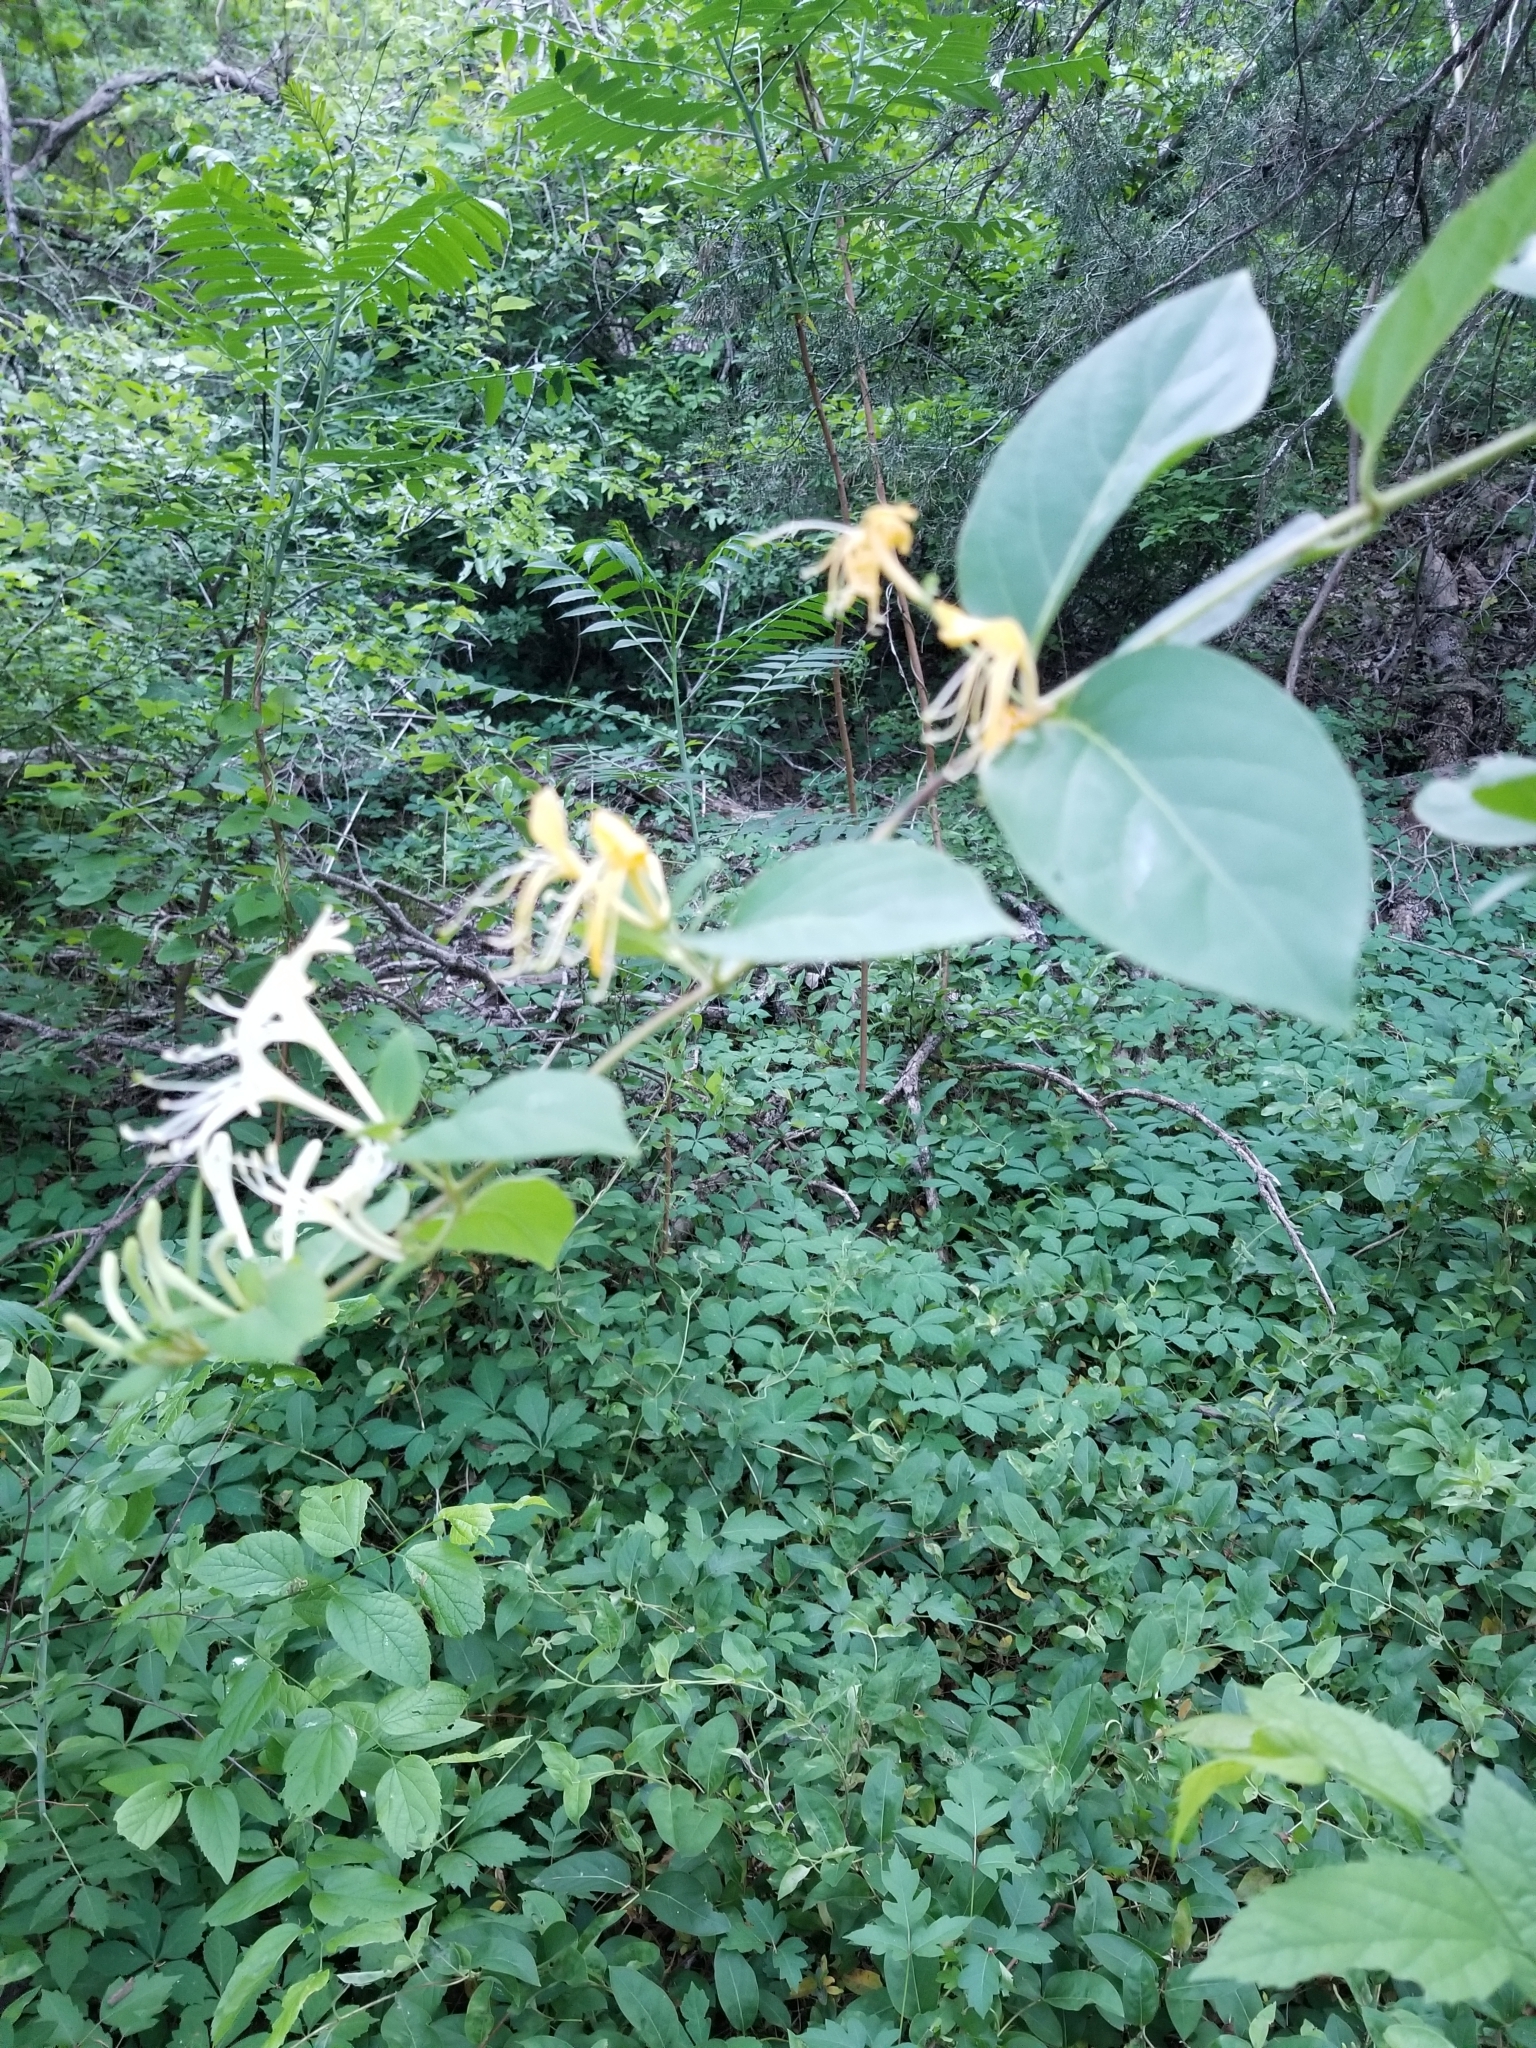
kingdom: Plantae
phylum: Tracheophyta
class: Magnoliopsida
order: Dipsacales
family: Caprifoliaceae
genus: Lonicera
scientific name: Lonicera japonica
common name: Japanese honeysuckle
